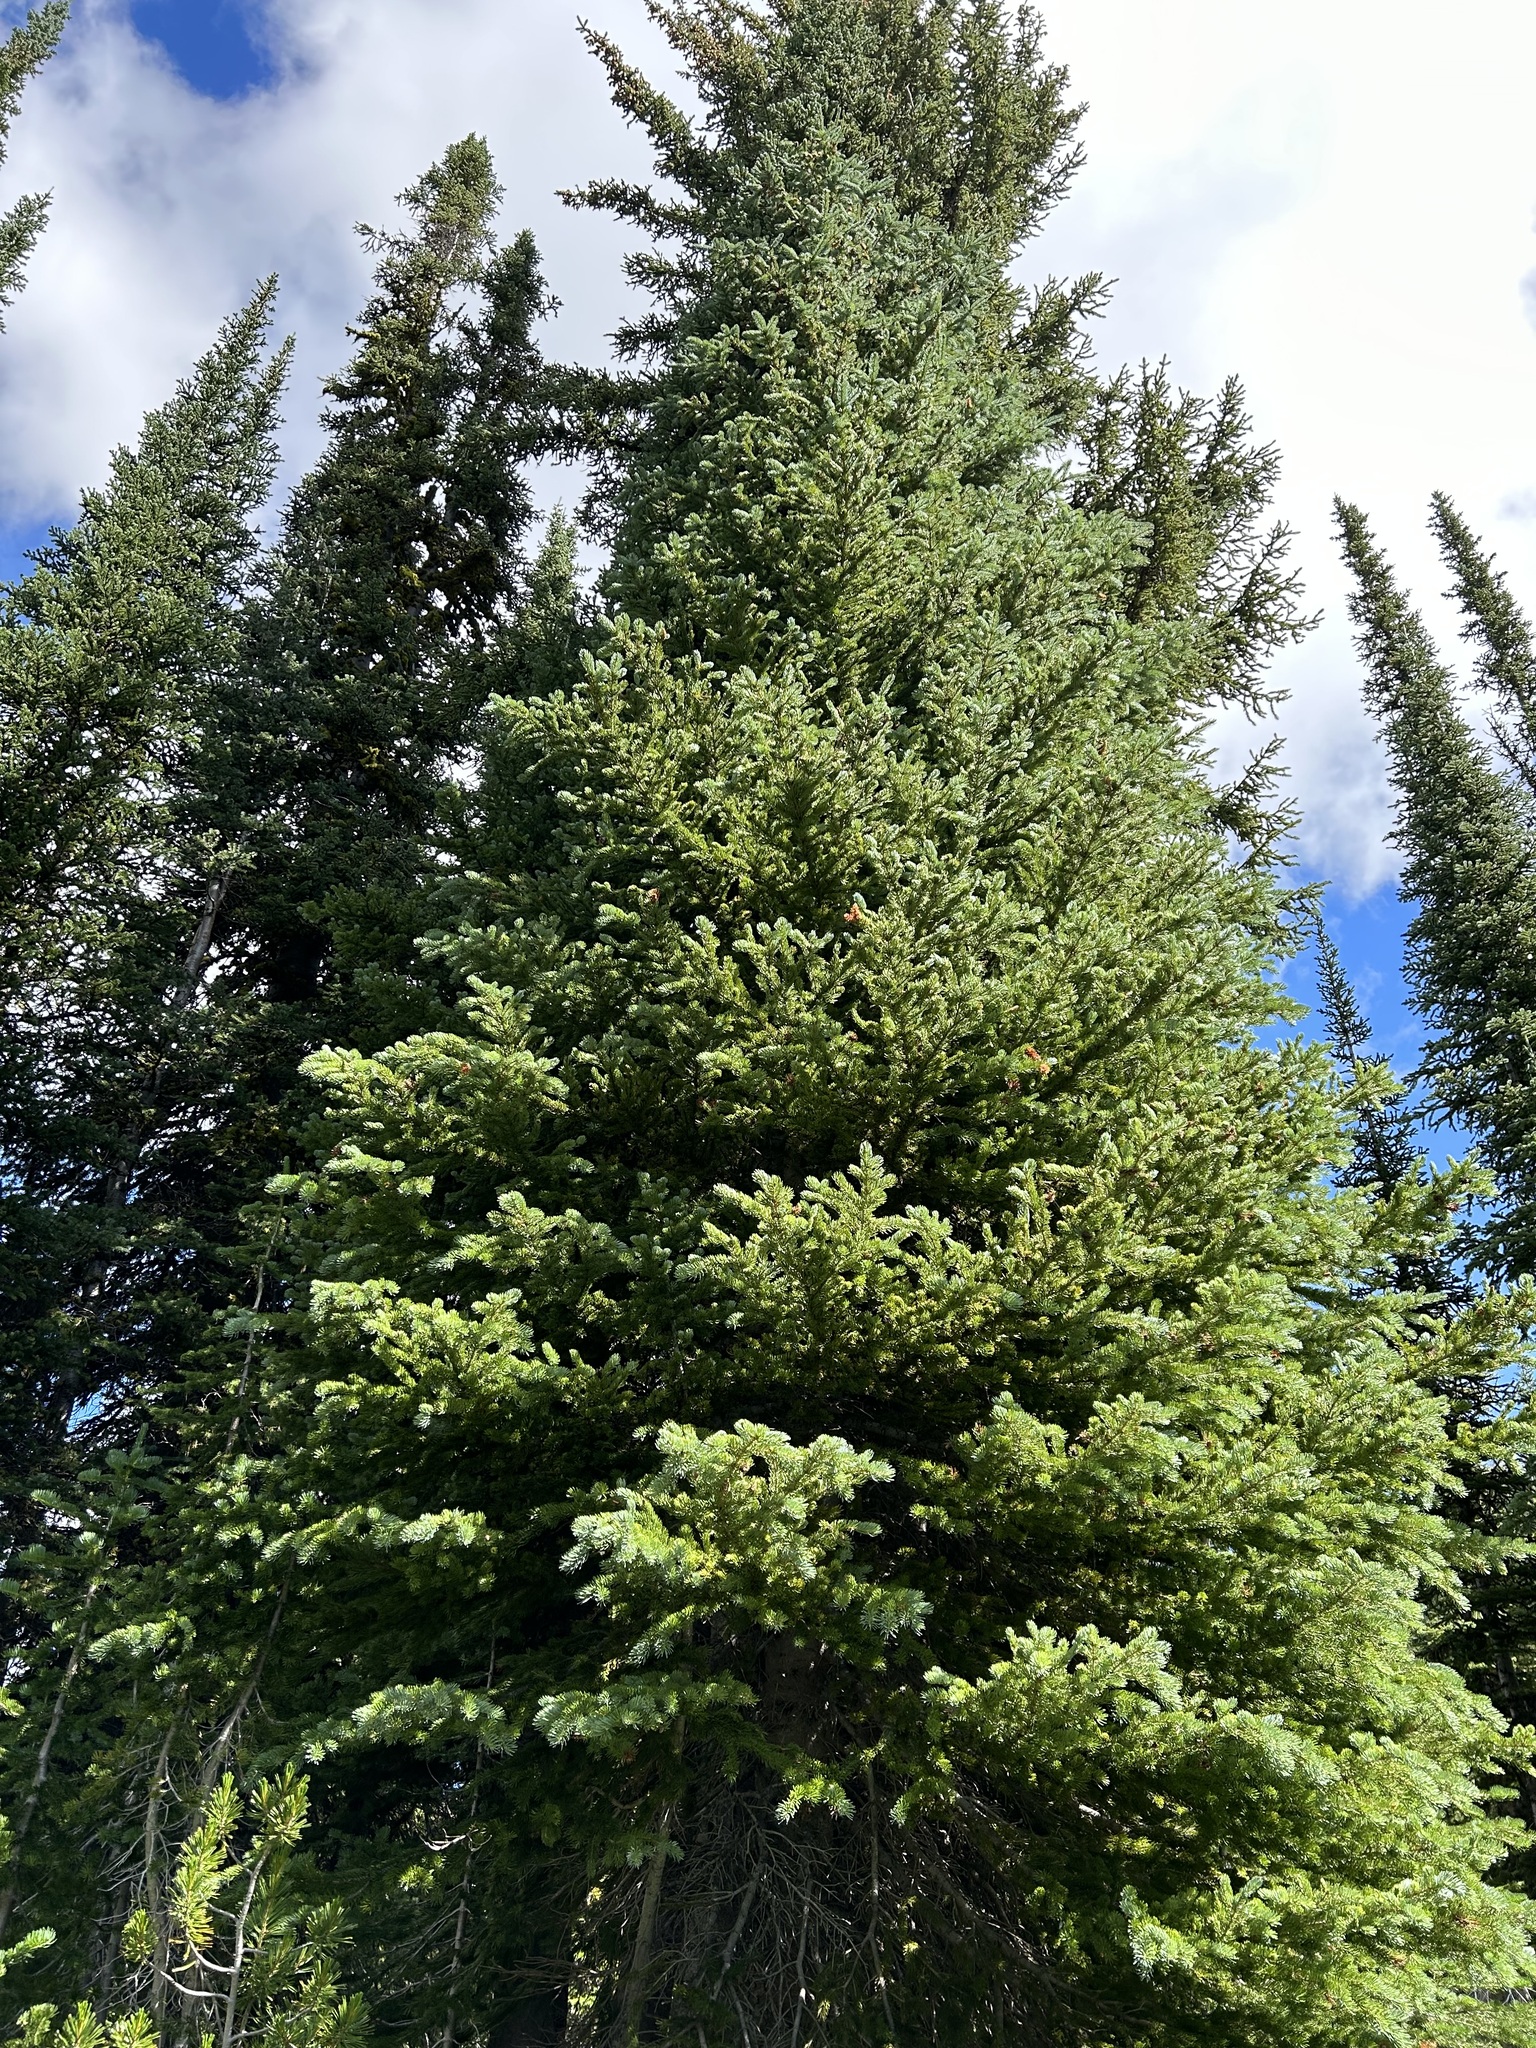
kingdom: Plantae
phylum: Tracheophyta
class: Pinopsida
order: Pinales
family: Pinaceae
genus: Picea
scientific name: Picea engelmannii
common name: Engelmann spruce
